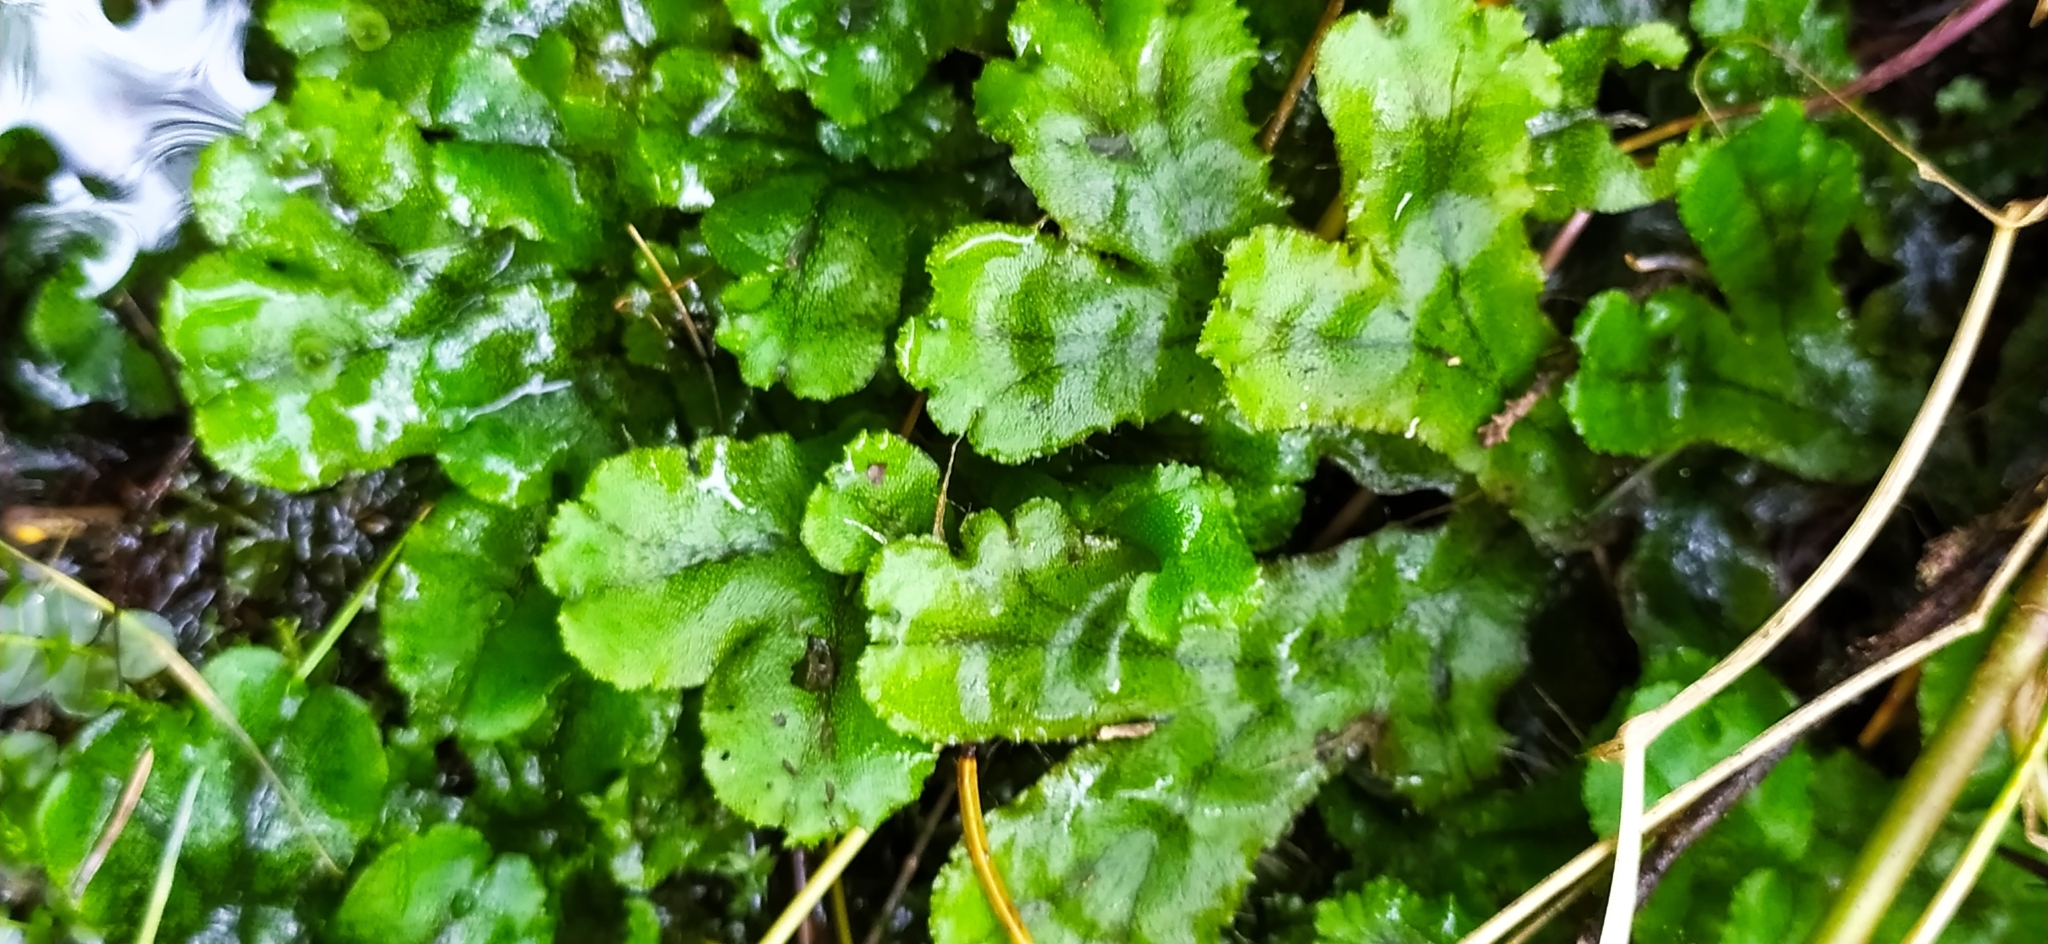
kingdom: Plantae
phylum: Marchantiophyta
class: Marchantiopsida
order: Marchantiales
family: Marchantiaceae
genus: Marchantia
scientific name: Marchantia polymorpha
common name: Common liverwort
